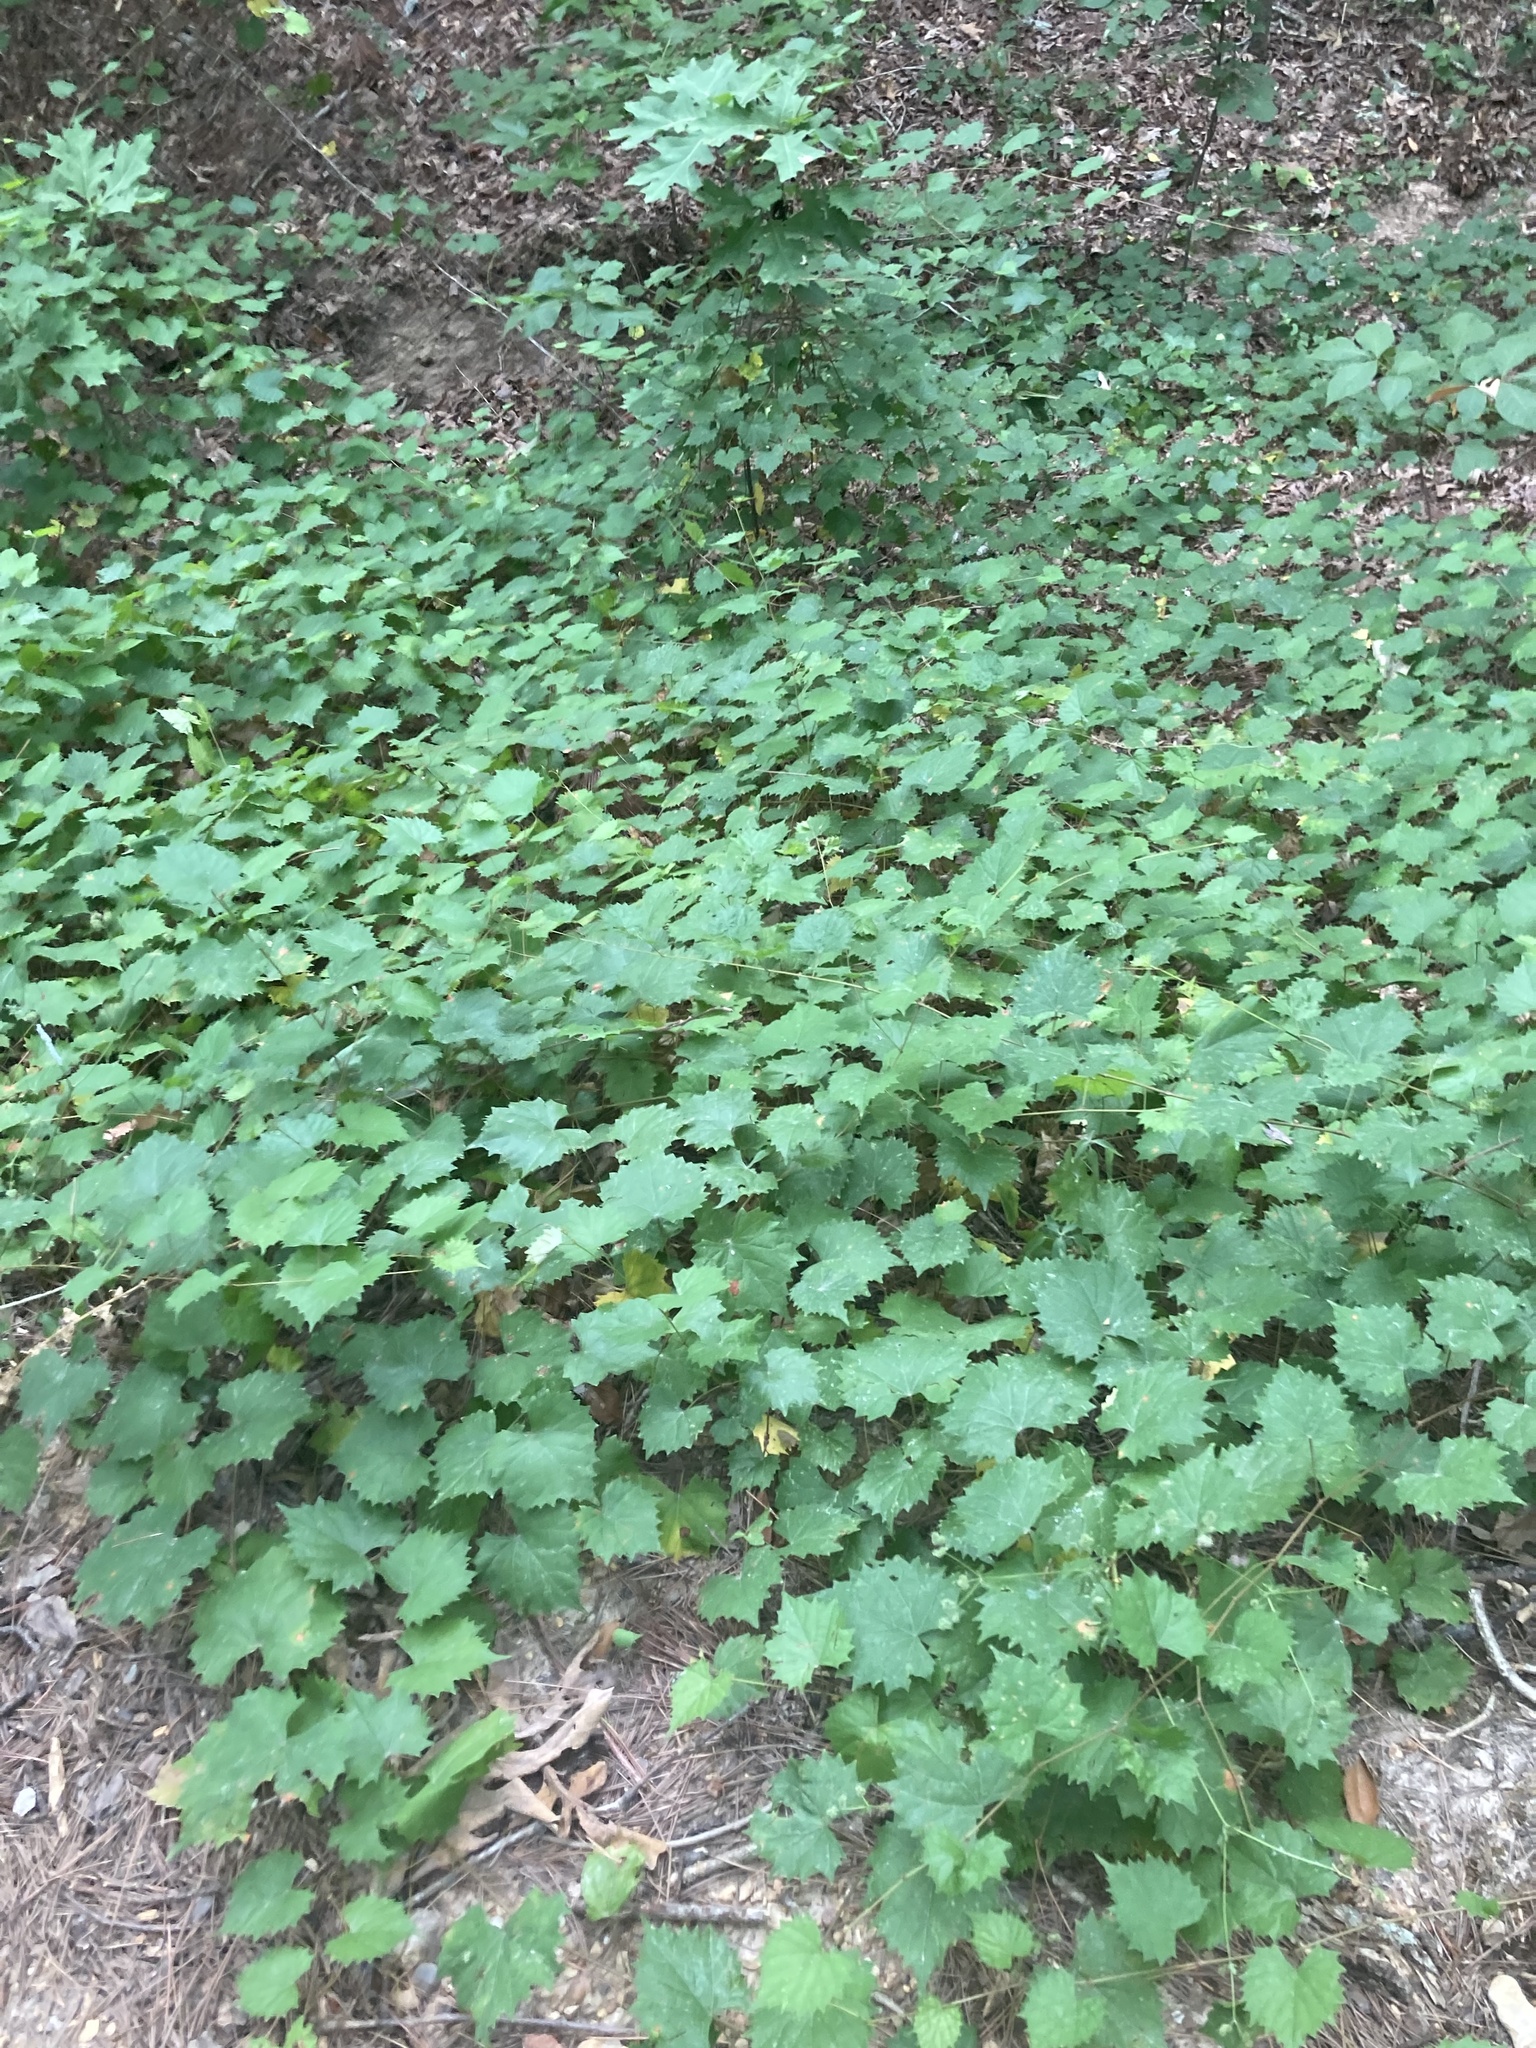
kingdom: Plantae
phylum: Tracheophyta
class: Magnoliopsida
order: Vitales
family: Vitaceae
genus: Vitis
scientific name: Vitis rotundifolia
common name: Muscadine grape
